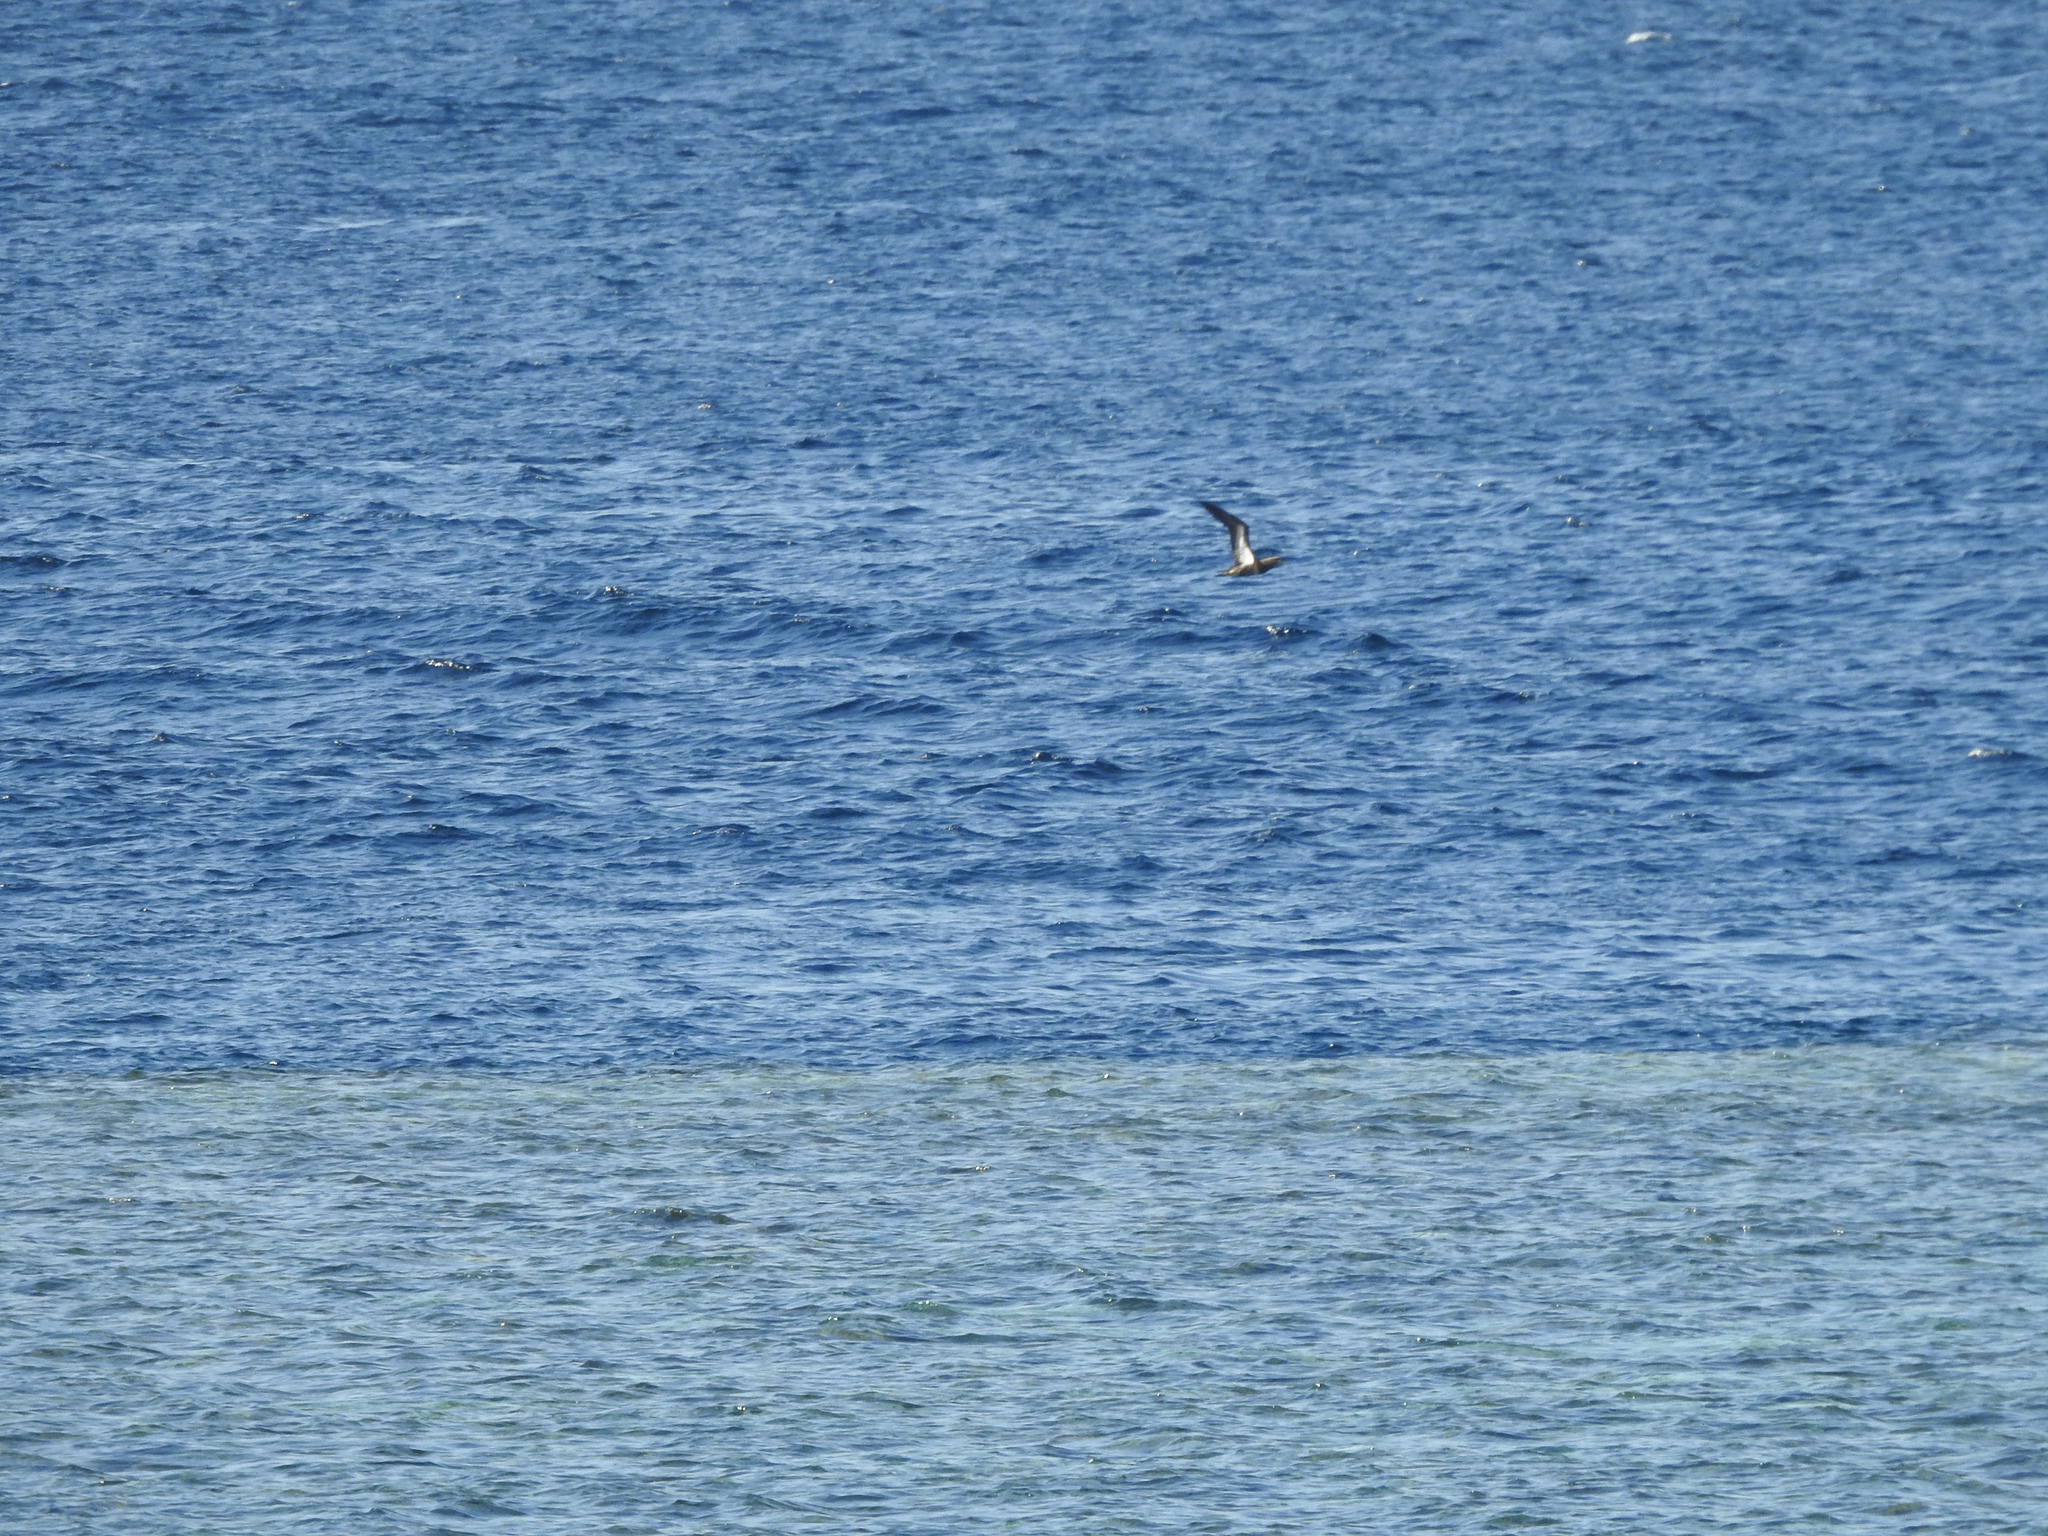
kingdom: Animalia
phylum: Chordata
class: Aves
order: Suliformes
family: Sulidae
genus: Sula
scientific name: Sula leucogaster
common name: Brown booby
